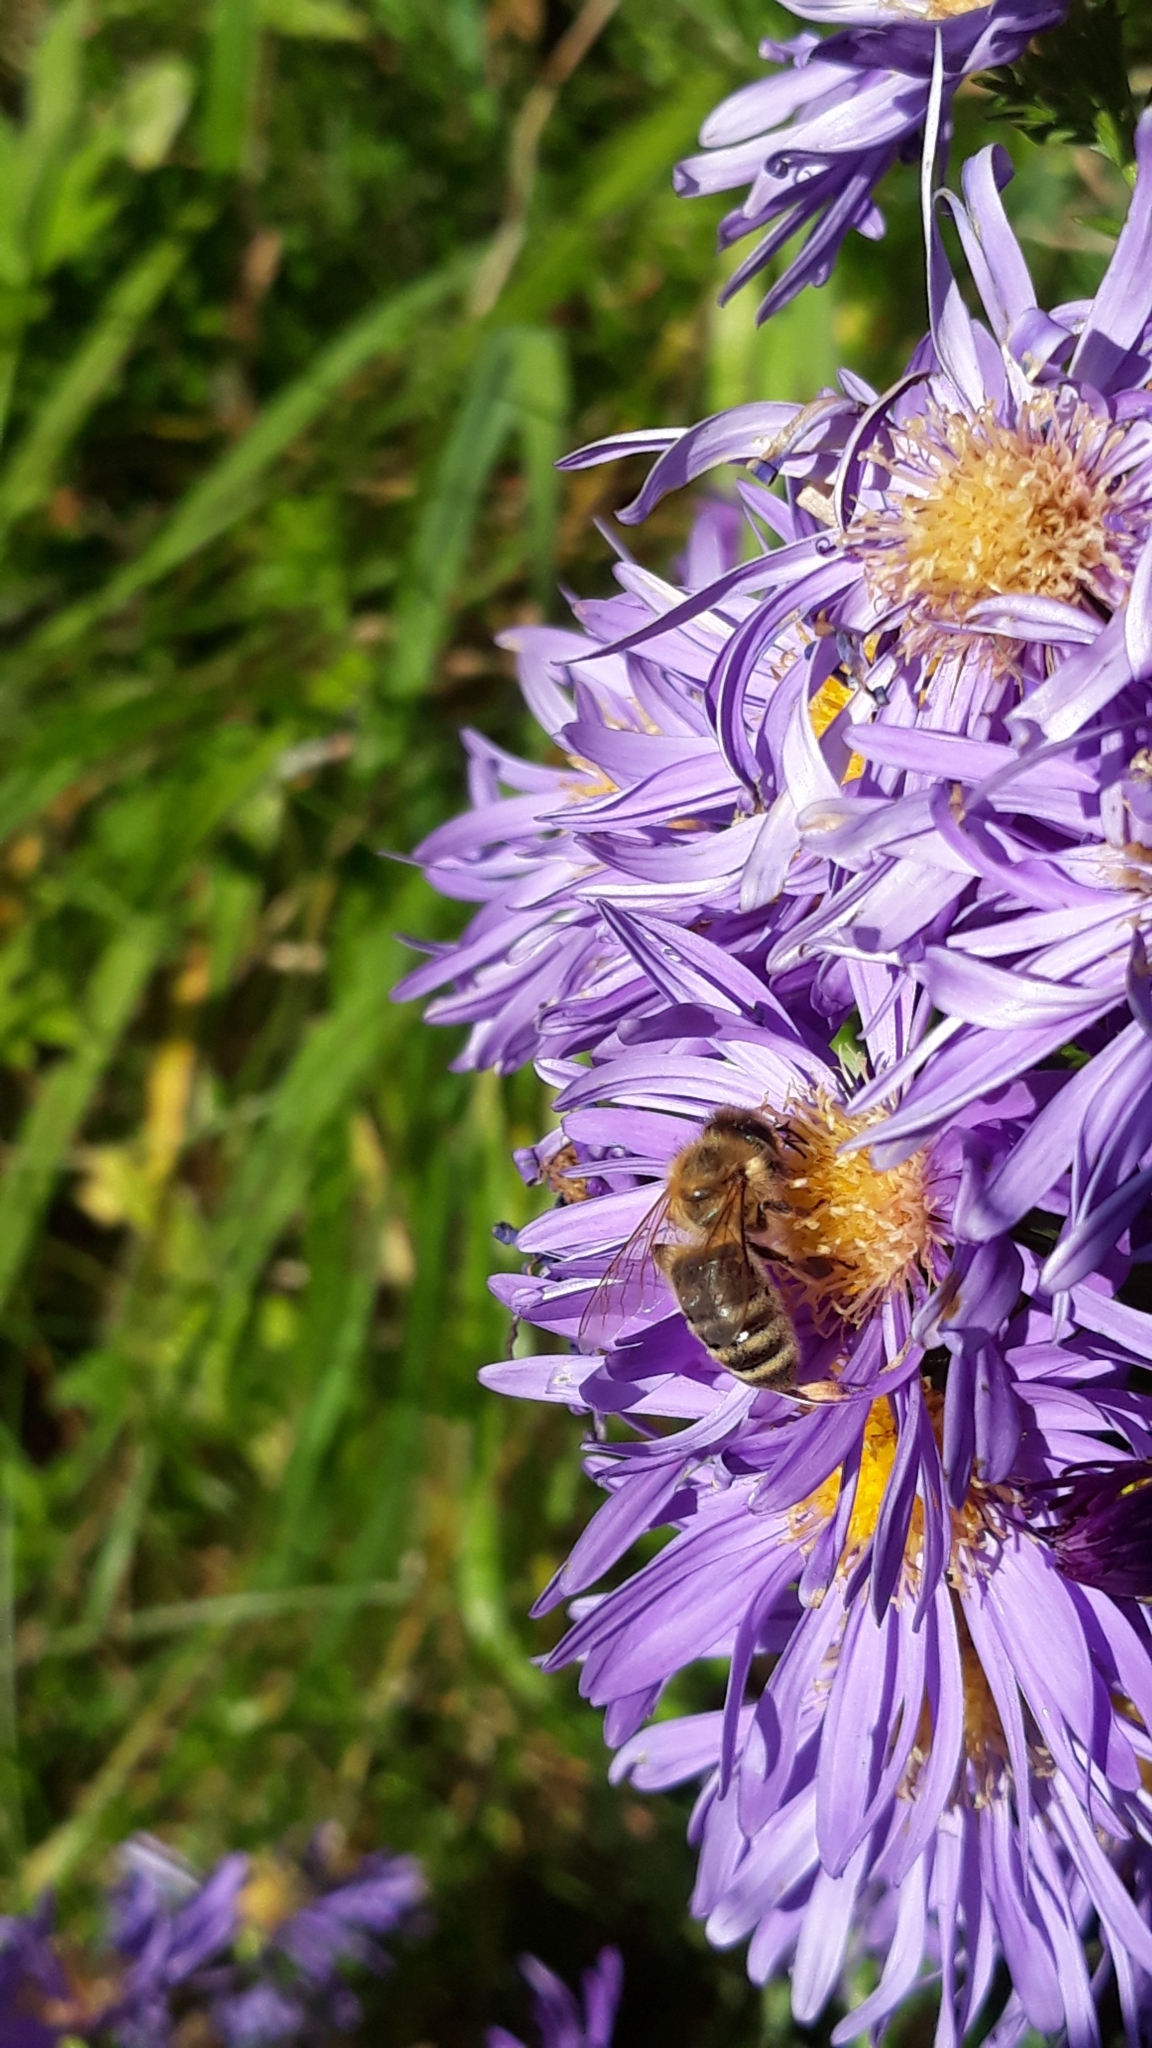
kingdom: Animalia
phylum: Arthropoda
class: Insecta
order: Hymenoptera
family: Apidae
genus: Apis
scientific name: Apis mellifera
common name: Honey bee
